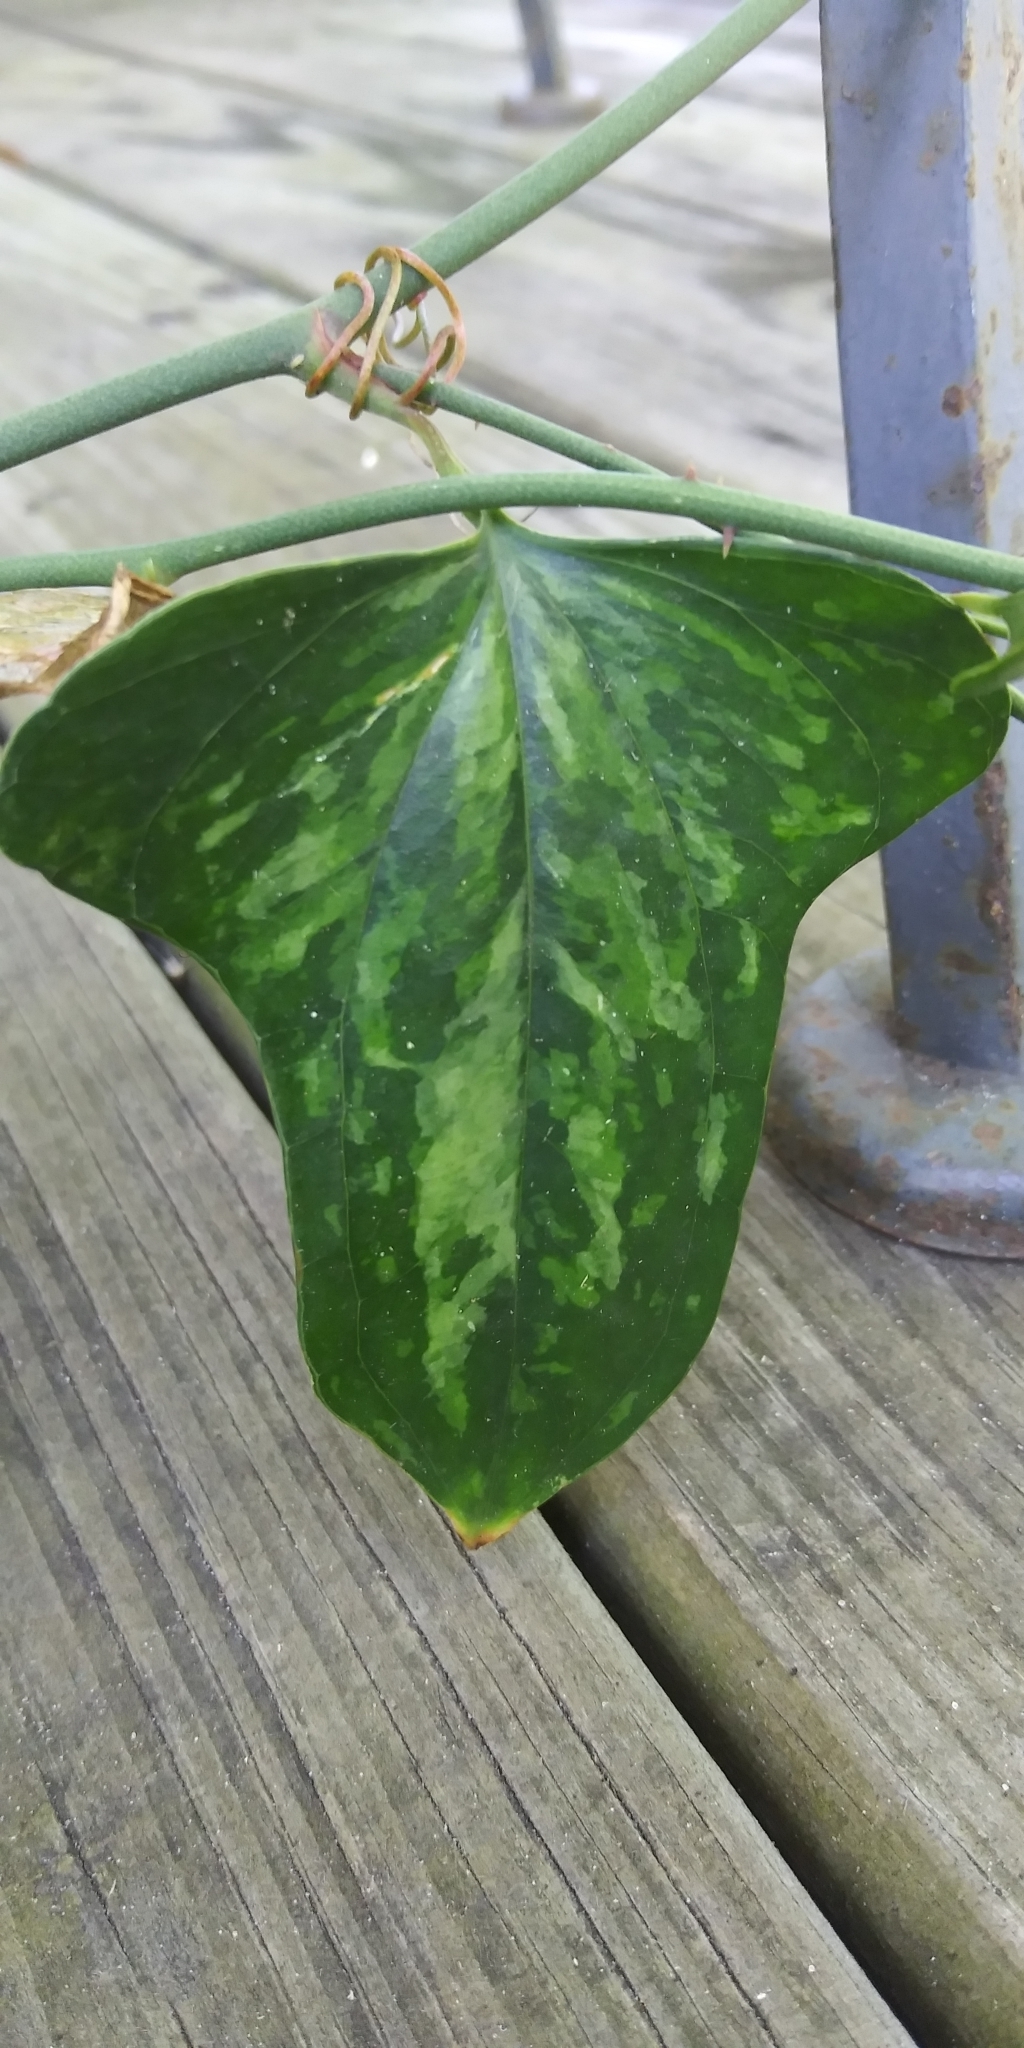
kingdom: Plantae
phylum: Tracheophyta
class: Liliopsida
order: Liliales
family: Smilacaceae
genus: Smilax
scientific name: Smilax bona-nox
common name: Catbrier
